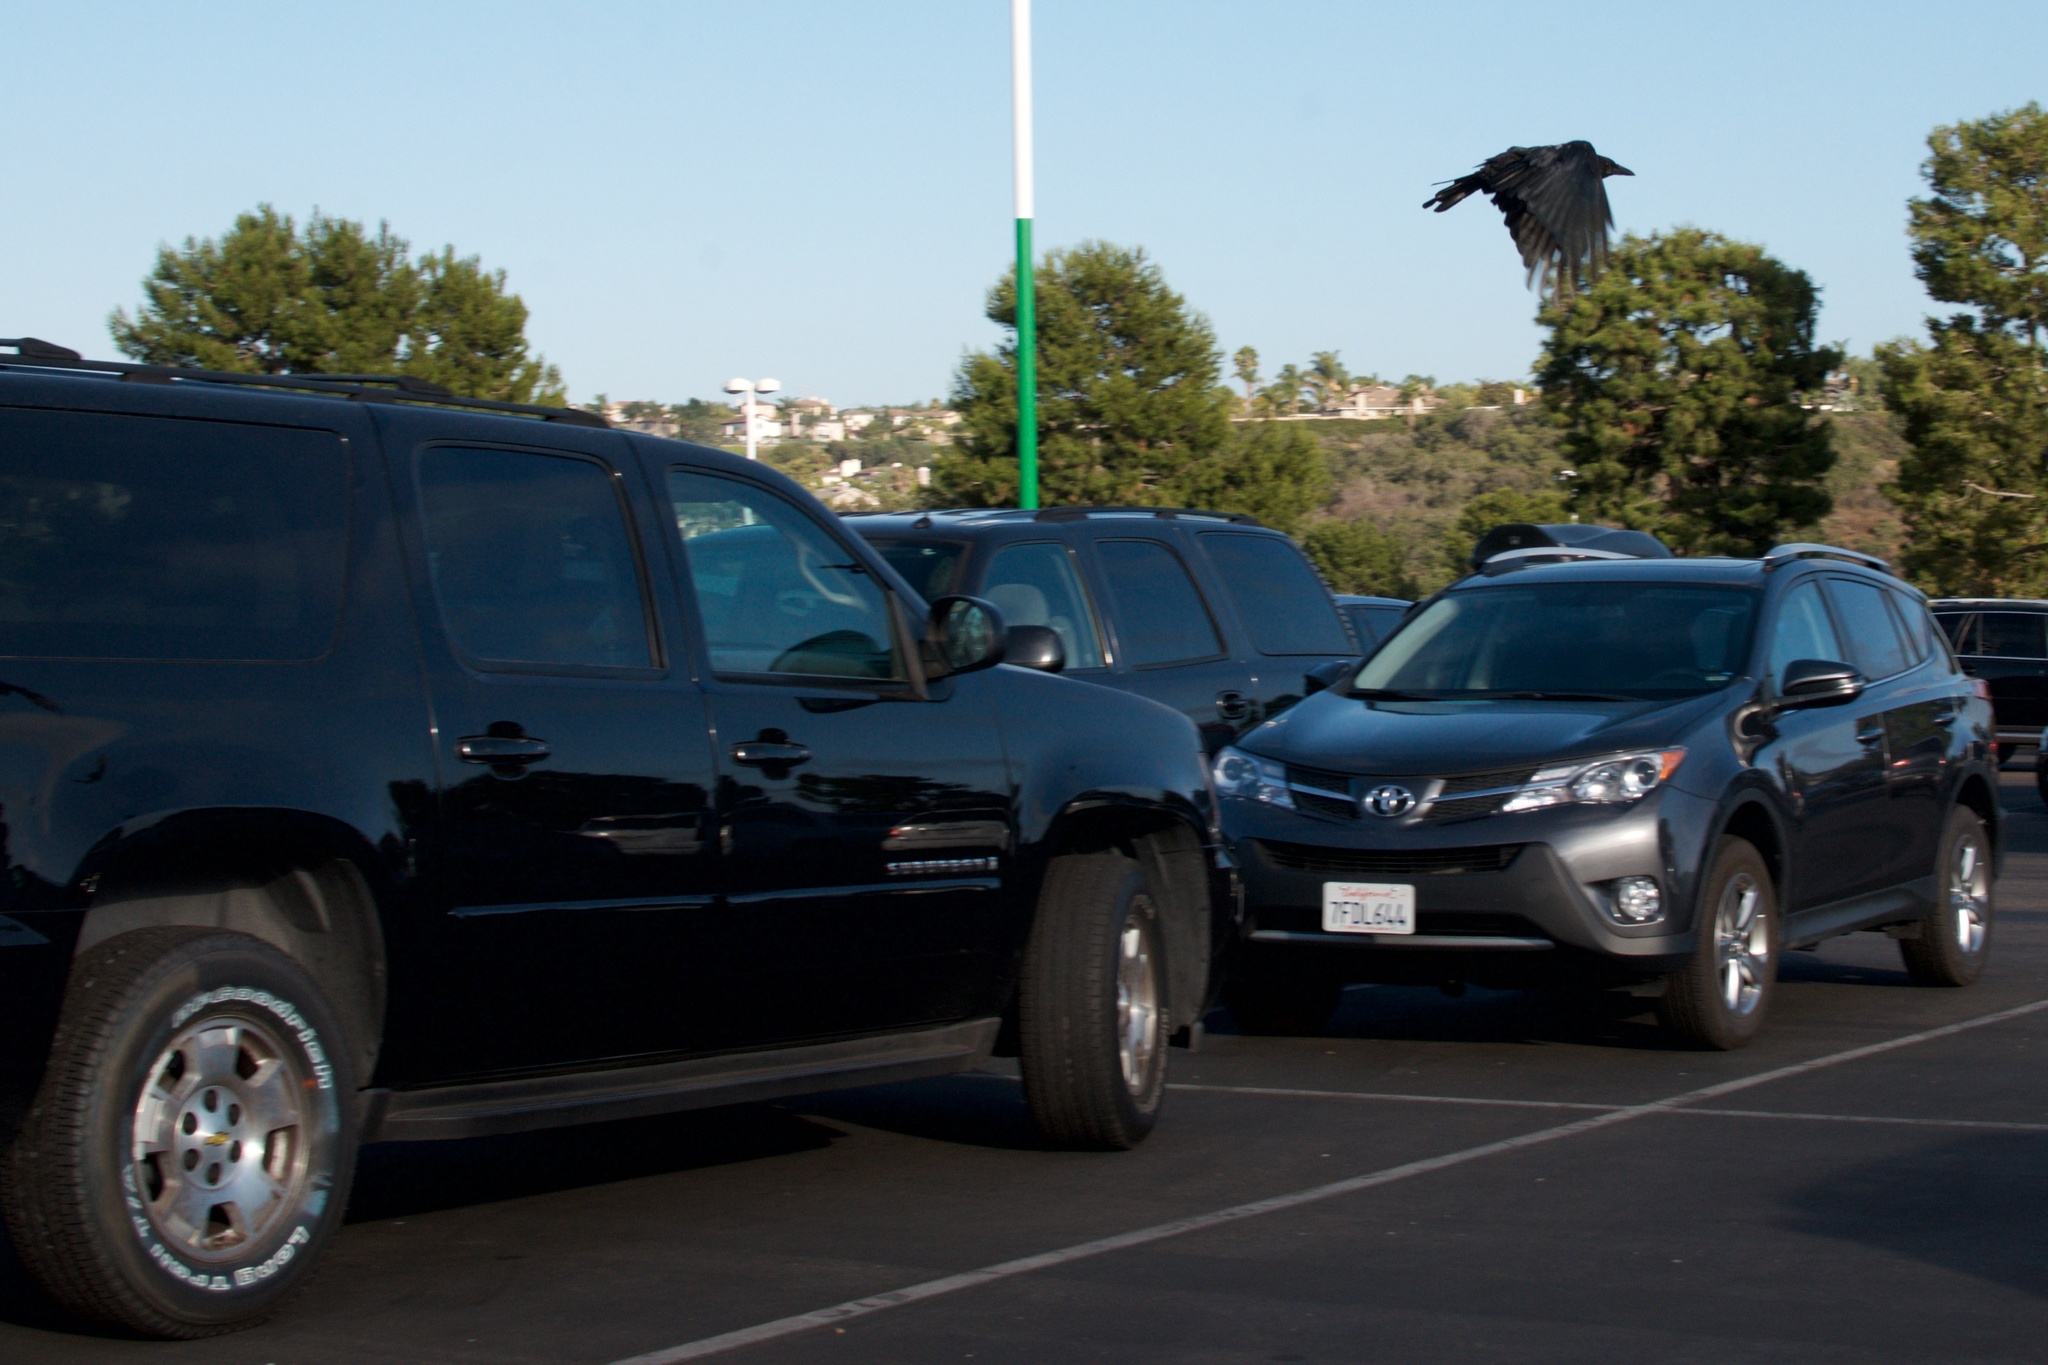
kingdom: Animalia
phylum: Chordata
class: Aves
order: Passeriformes
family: Corvidae
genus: Corvus
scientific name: Corvus brachyrhynchos
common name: American crow
